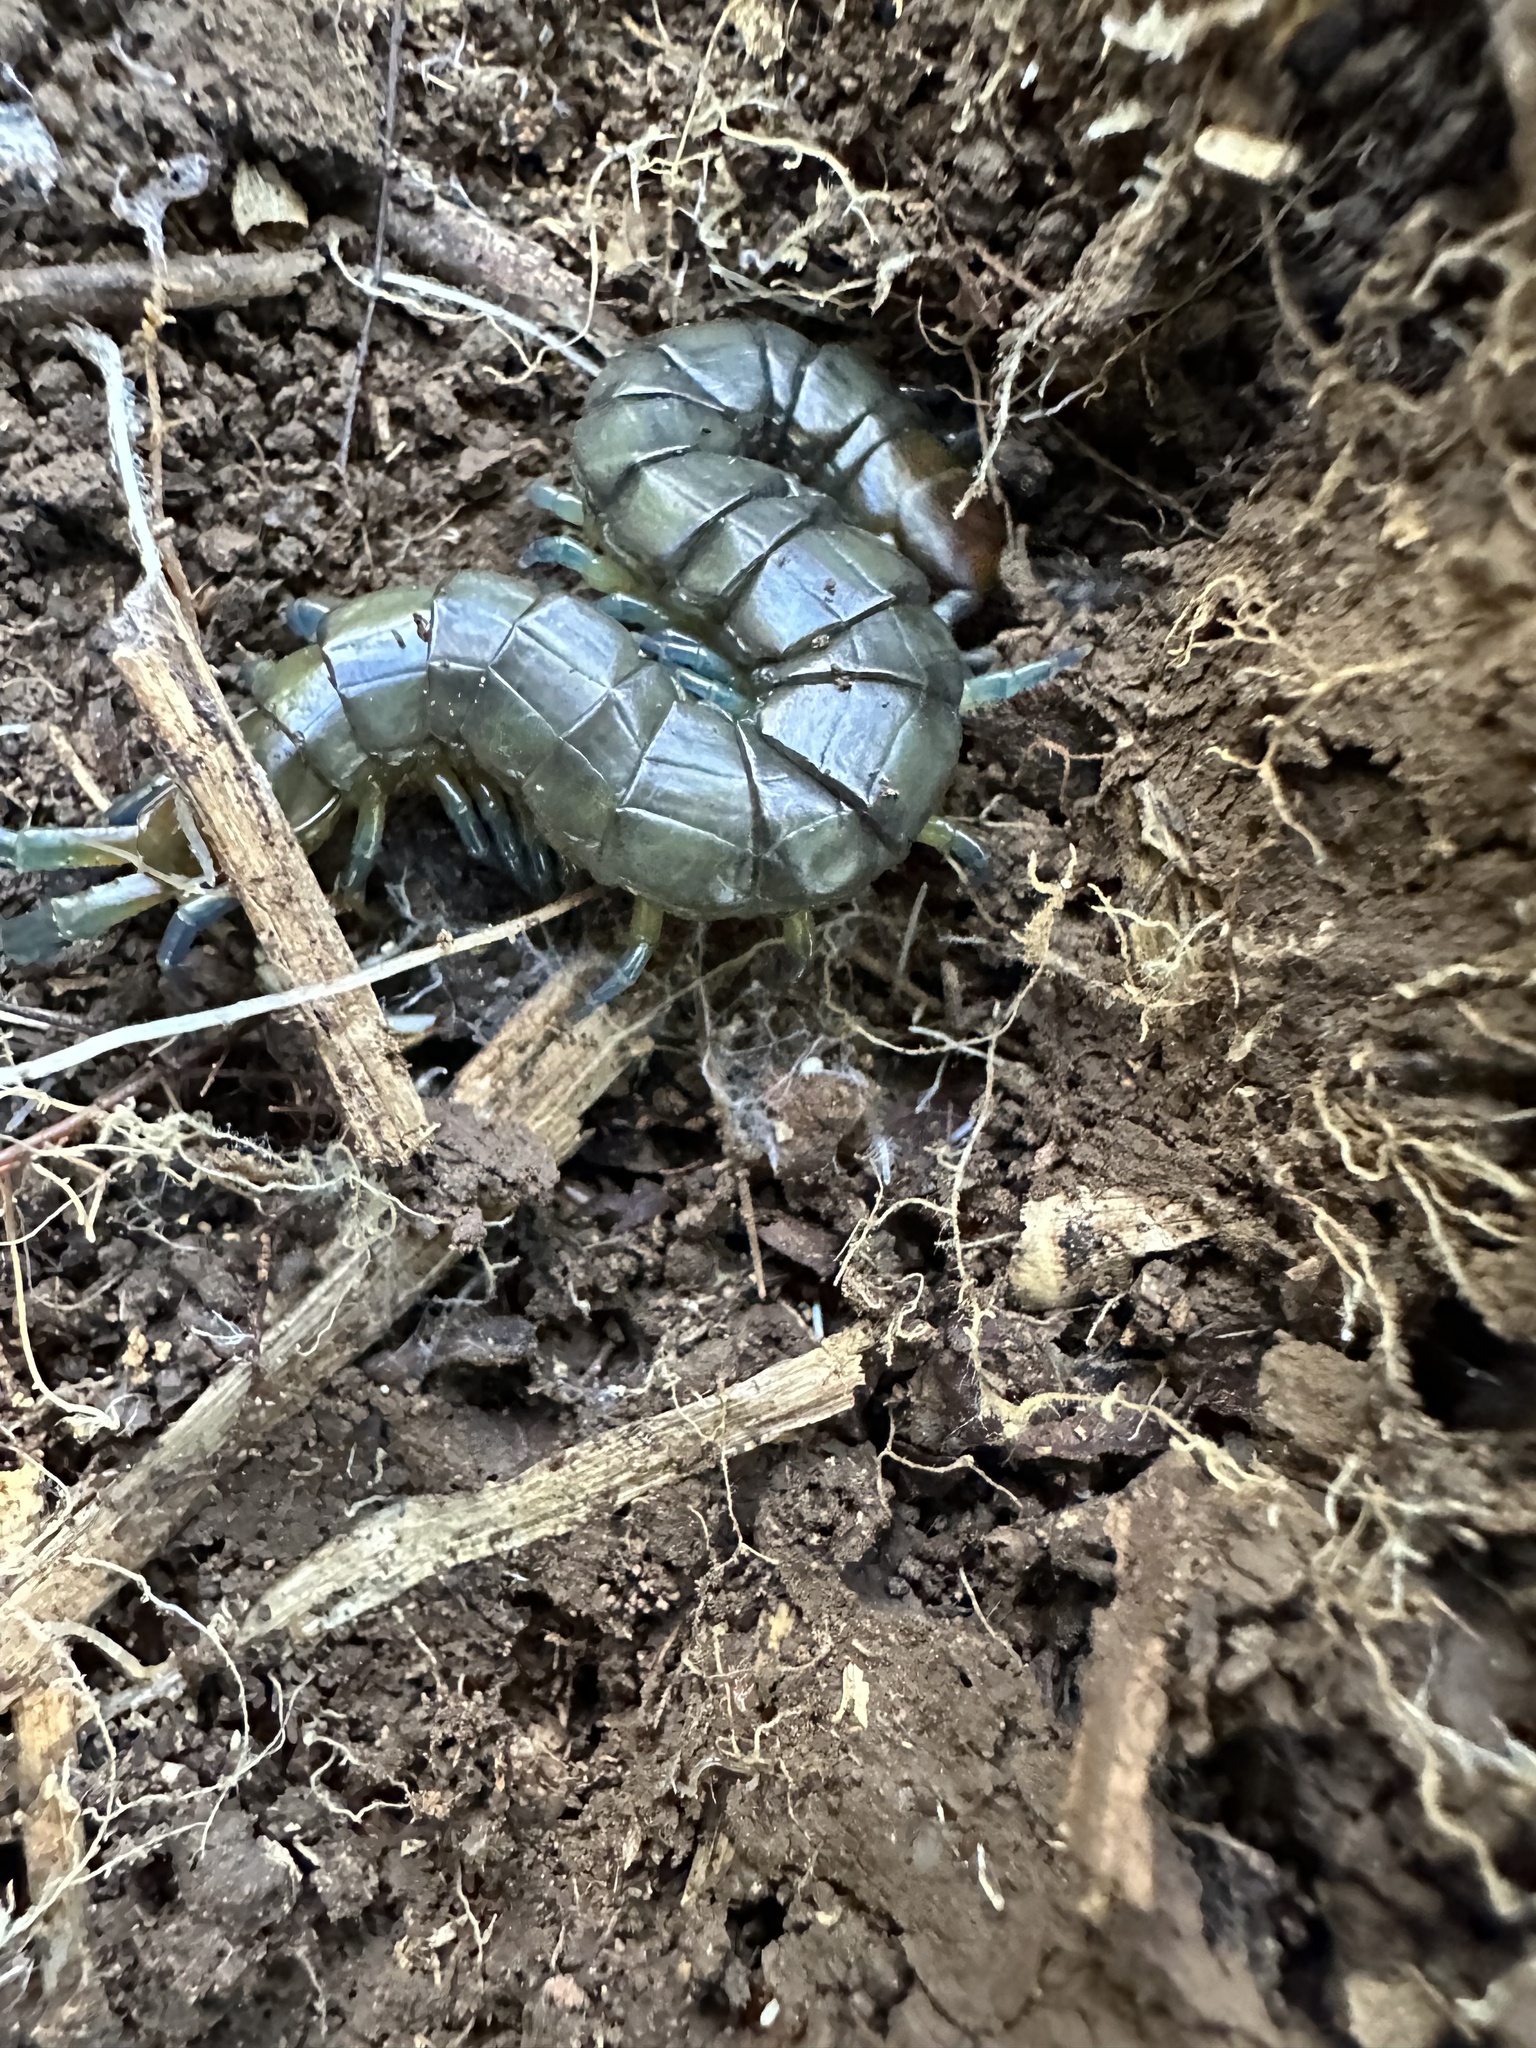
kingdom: Animalia
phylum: Arthropoda
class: Chilopoda
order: Scolopendromorpha
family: Scolopendridae
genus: Hemiscolopendra
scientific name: Hemiscolopendra chilensis
